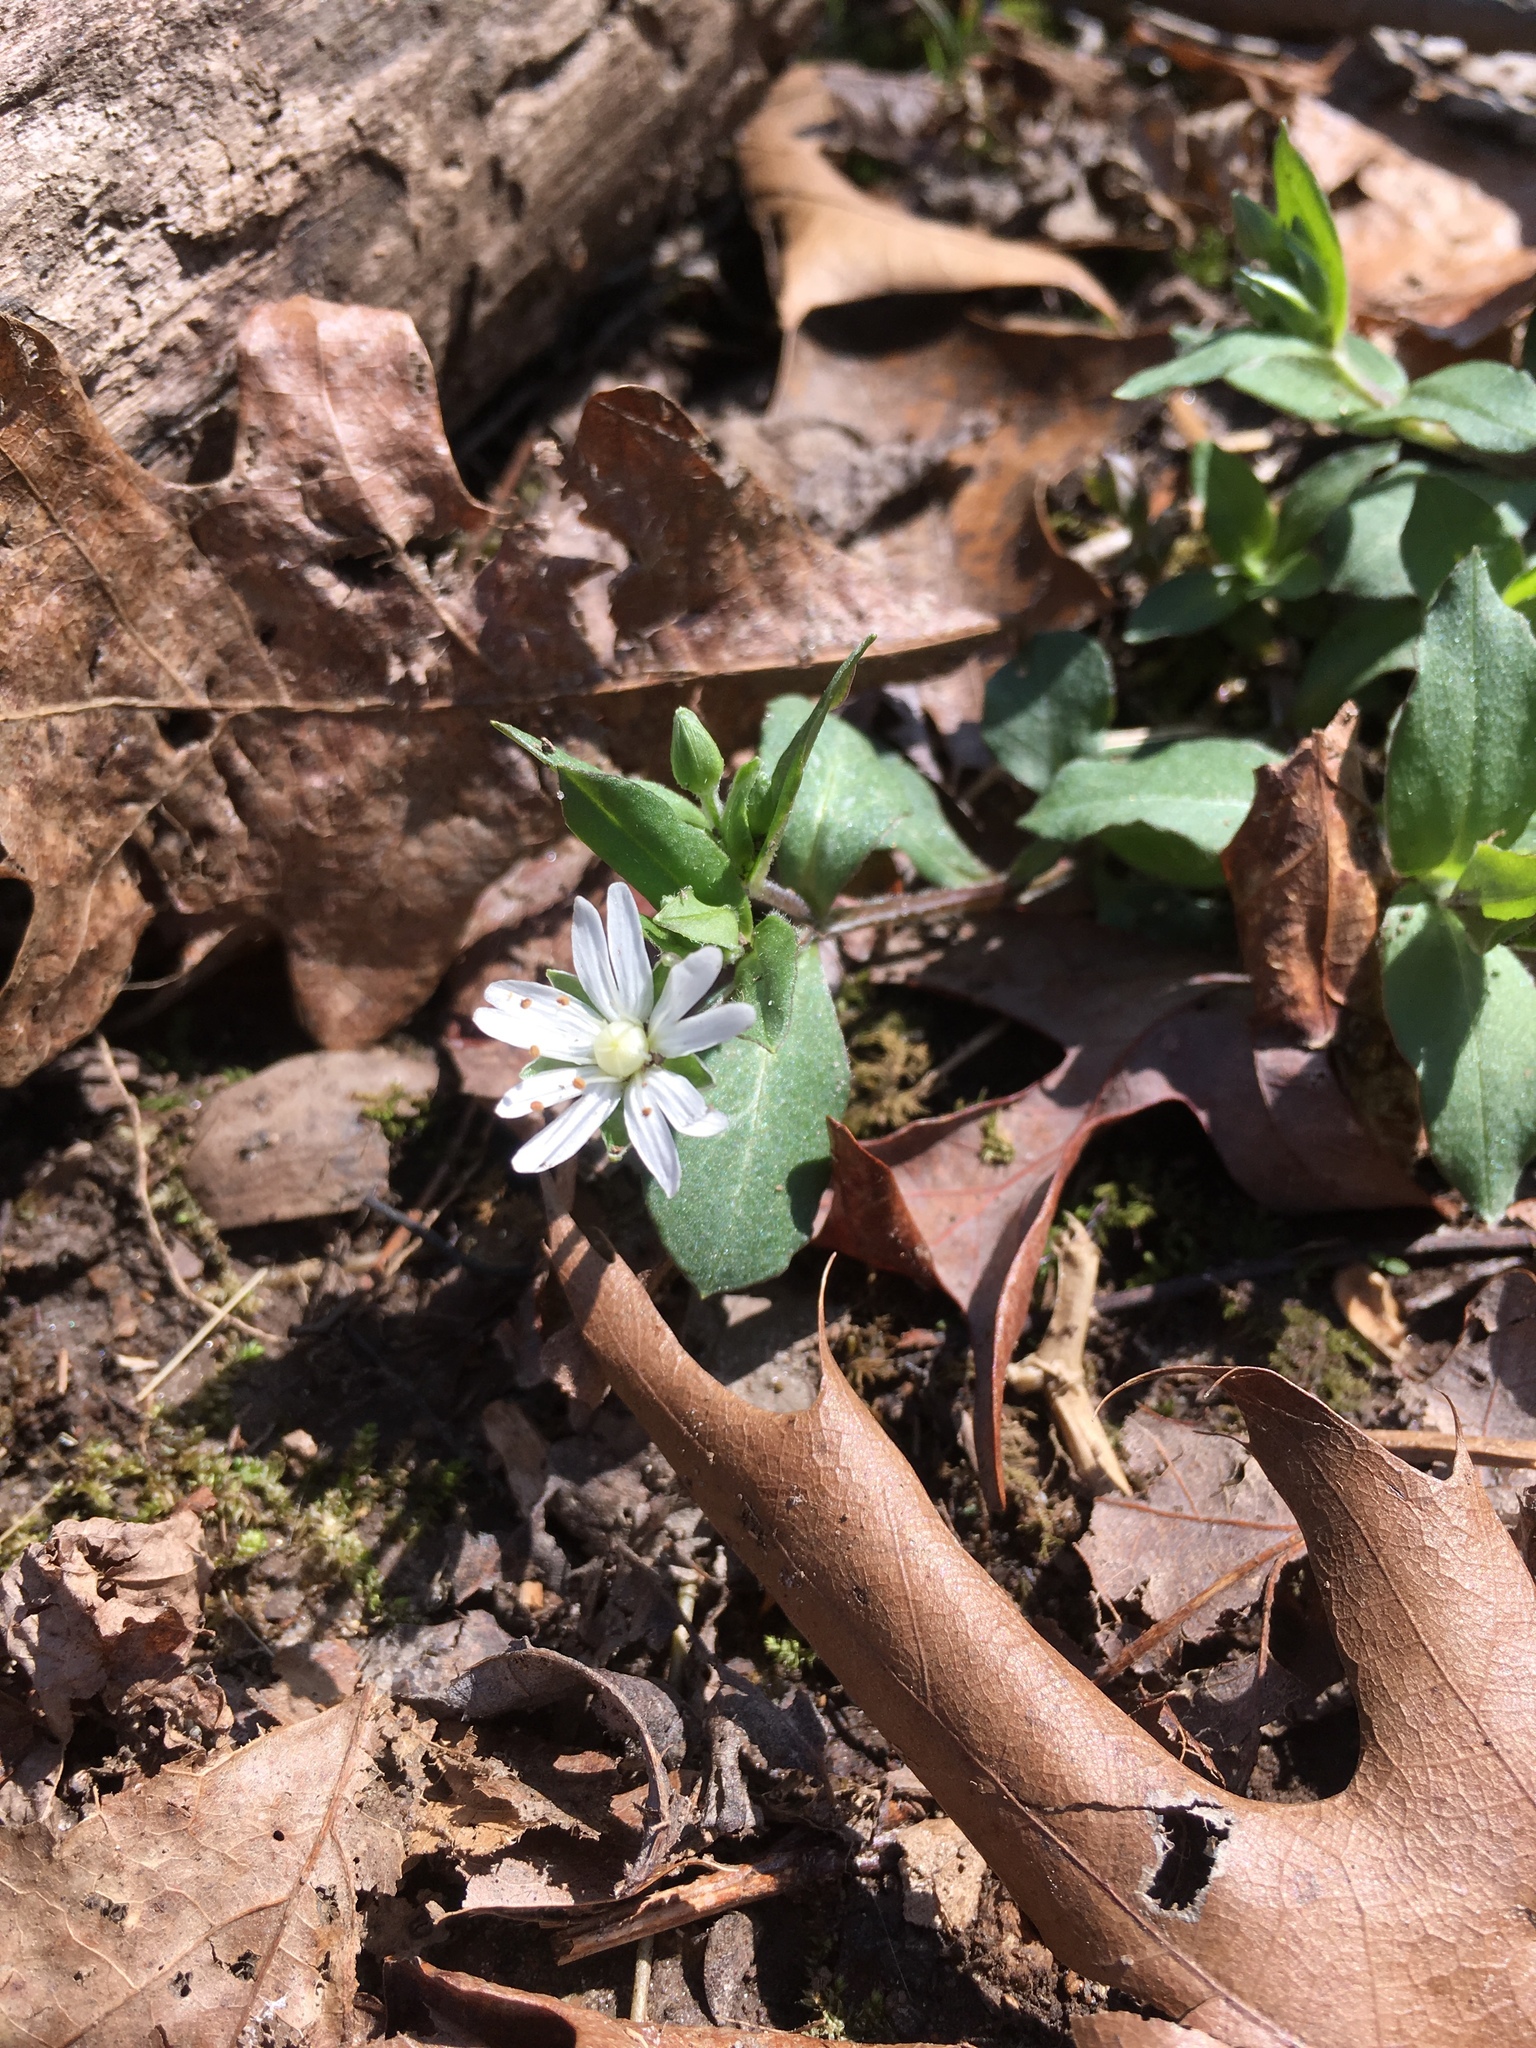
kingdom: Plantae
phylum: Tracheophyta
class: Magnoliopsida
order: Caryophyllales
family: Caryophyllaceae
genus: Stellaria
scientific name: Stellaria pubera
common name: Star chickweed
